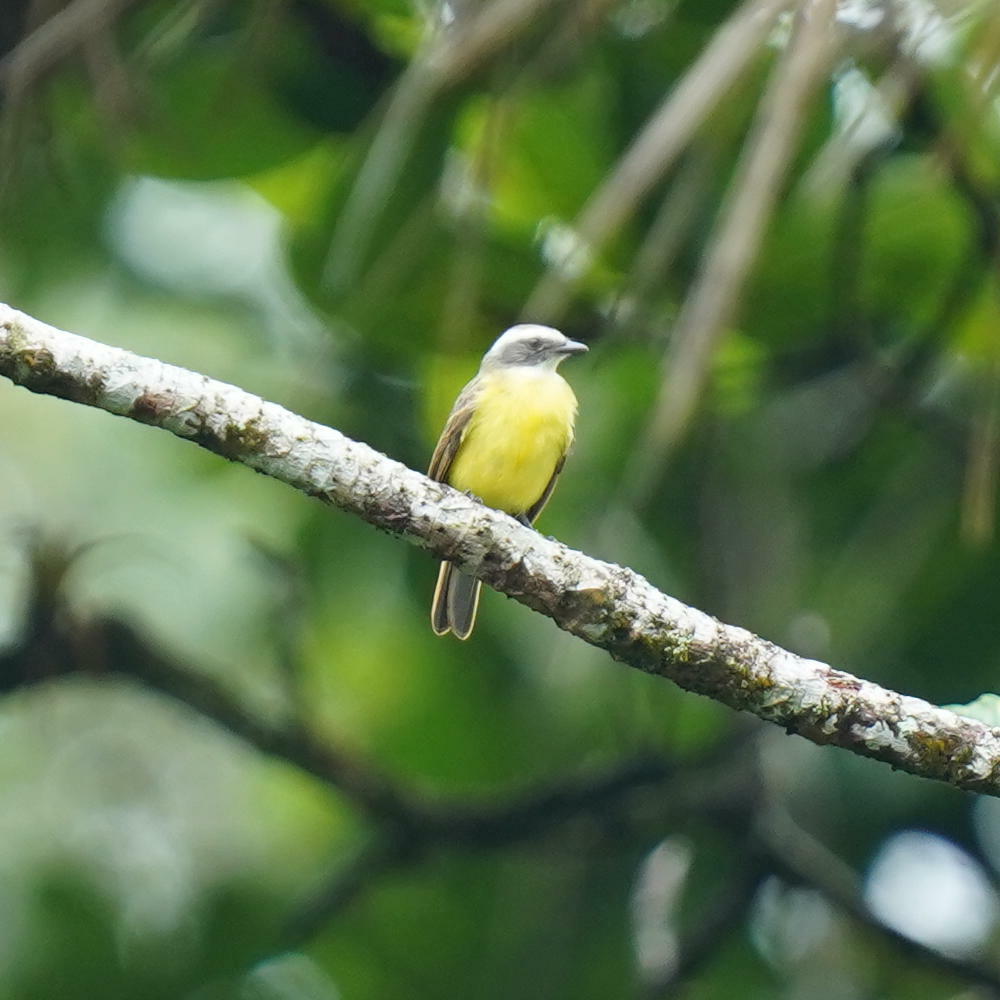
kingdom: Animalia
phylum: Chordata
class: Aves
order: Passeriformes
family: Tyrannidae
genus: Myiozetetes
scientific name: Myiozetetes similis
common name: Social flycatcher
